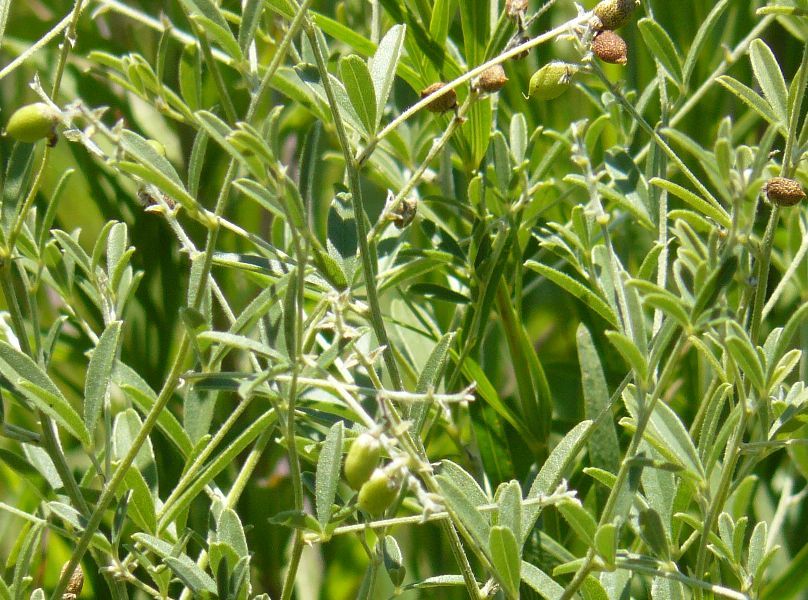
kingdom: Plantae
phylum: Tracheophyta
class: Magnoliopsida
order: Fabales
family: Fabaceae
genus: Pediomelum
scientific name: Pediomelum tenuiflorum
